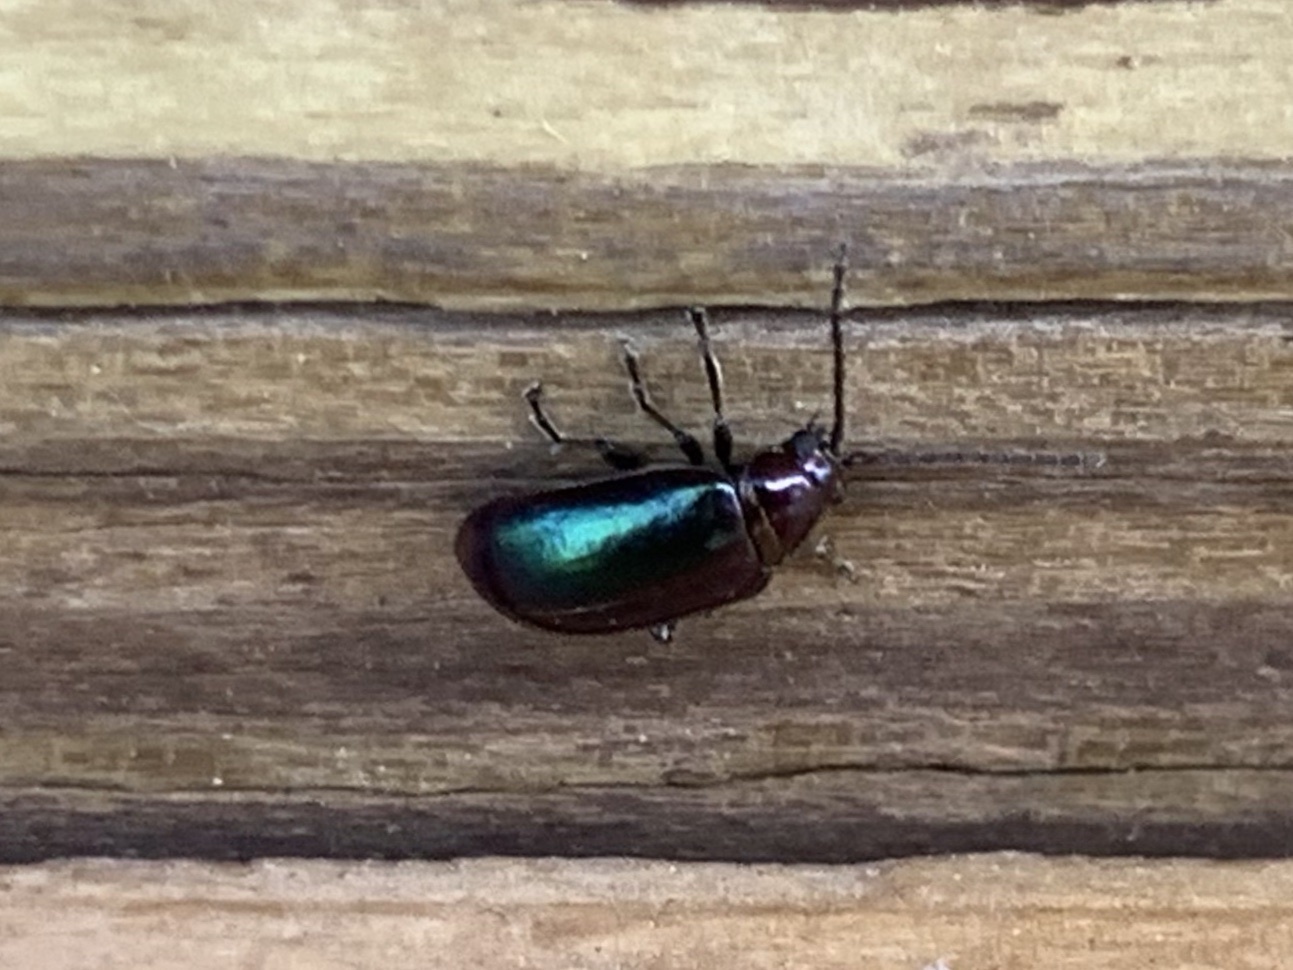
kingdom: Animalia
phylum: Arthropoda
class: Insecta
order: Coleoptera
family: Chrysomelidae
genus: Altica
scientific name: Altica torquata
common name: Leaf beetle
